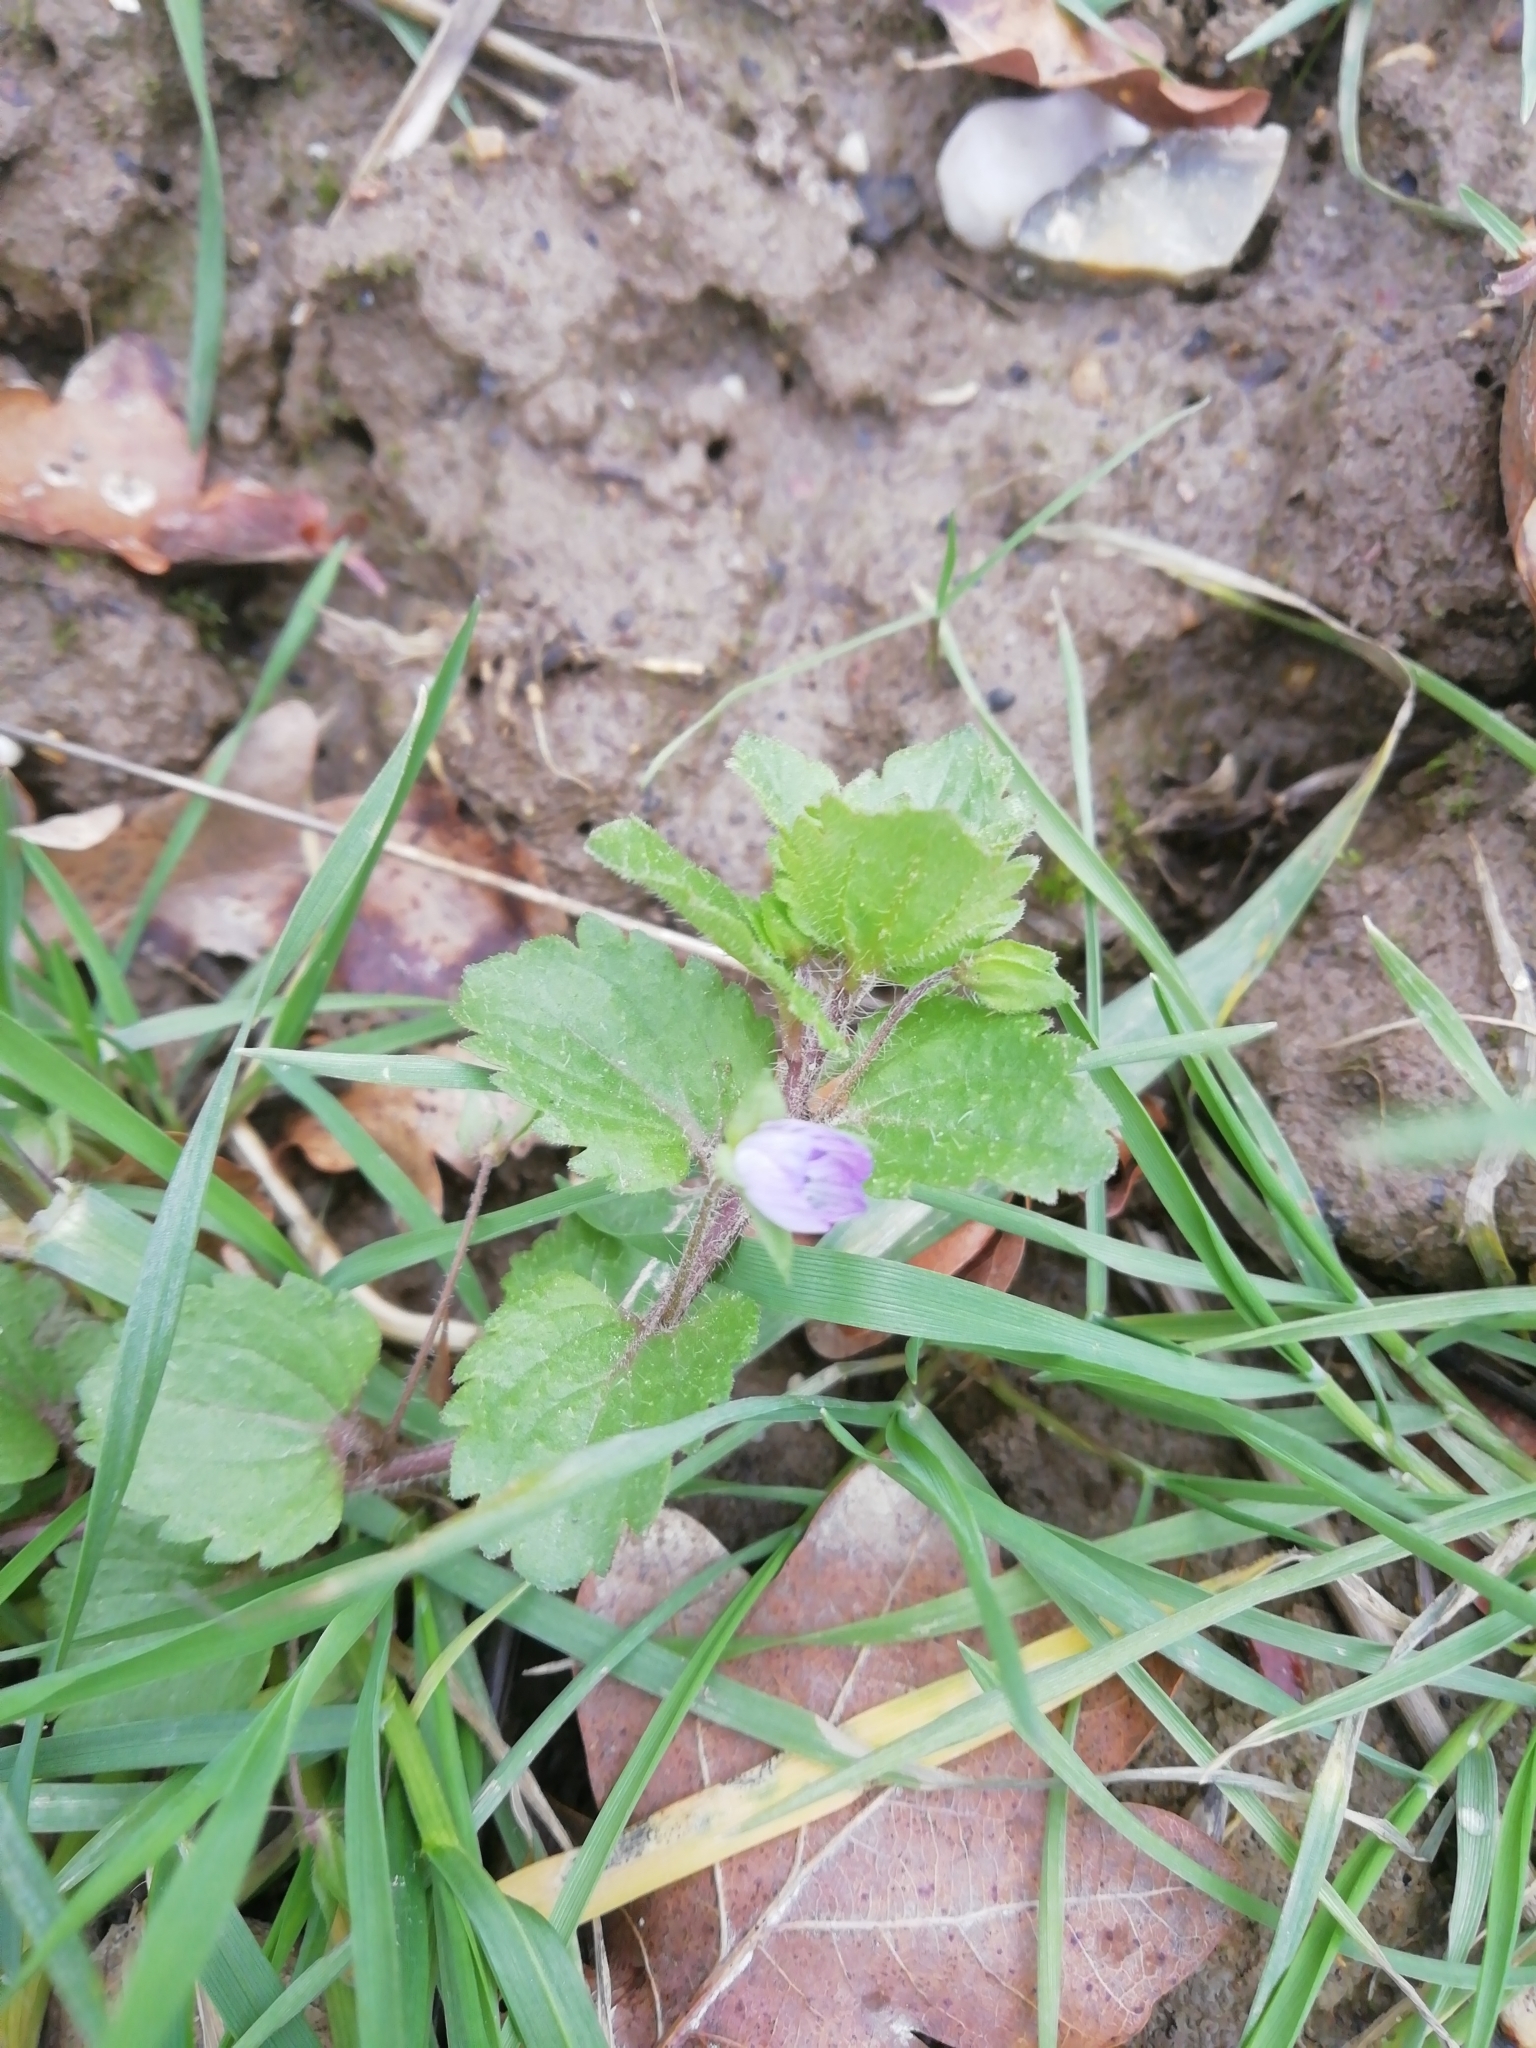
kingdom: Plantae
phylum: Tracheophyta
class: Magnoliopsida
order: Lamiales
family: Plantaginaceae
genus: Veronica
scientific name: Veronica persica
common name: Common field-speedwell
